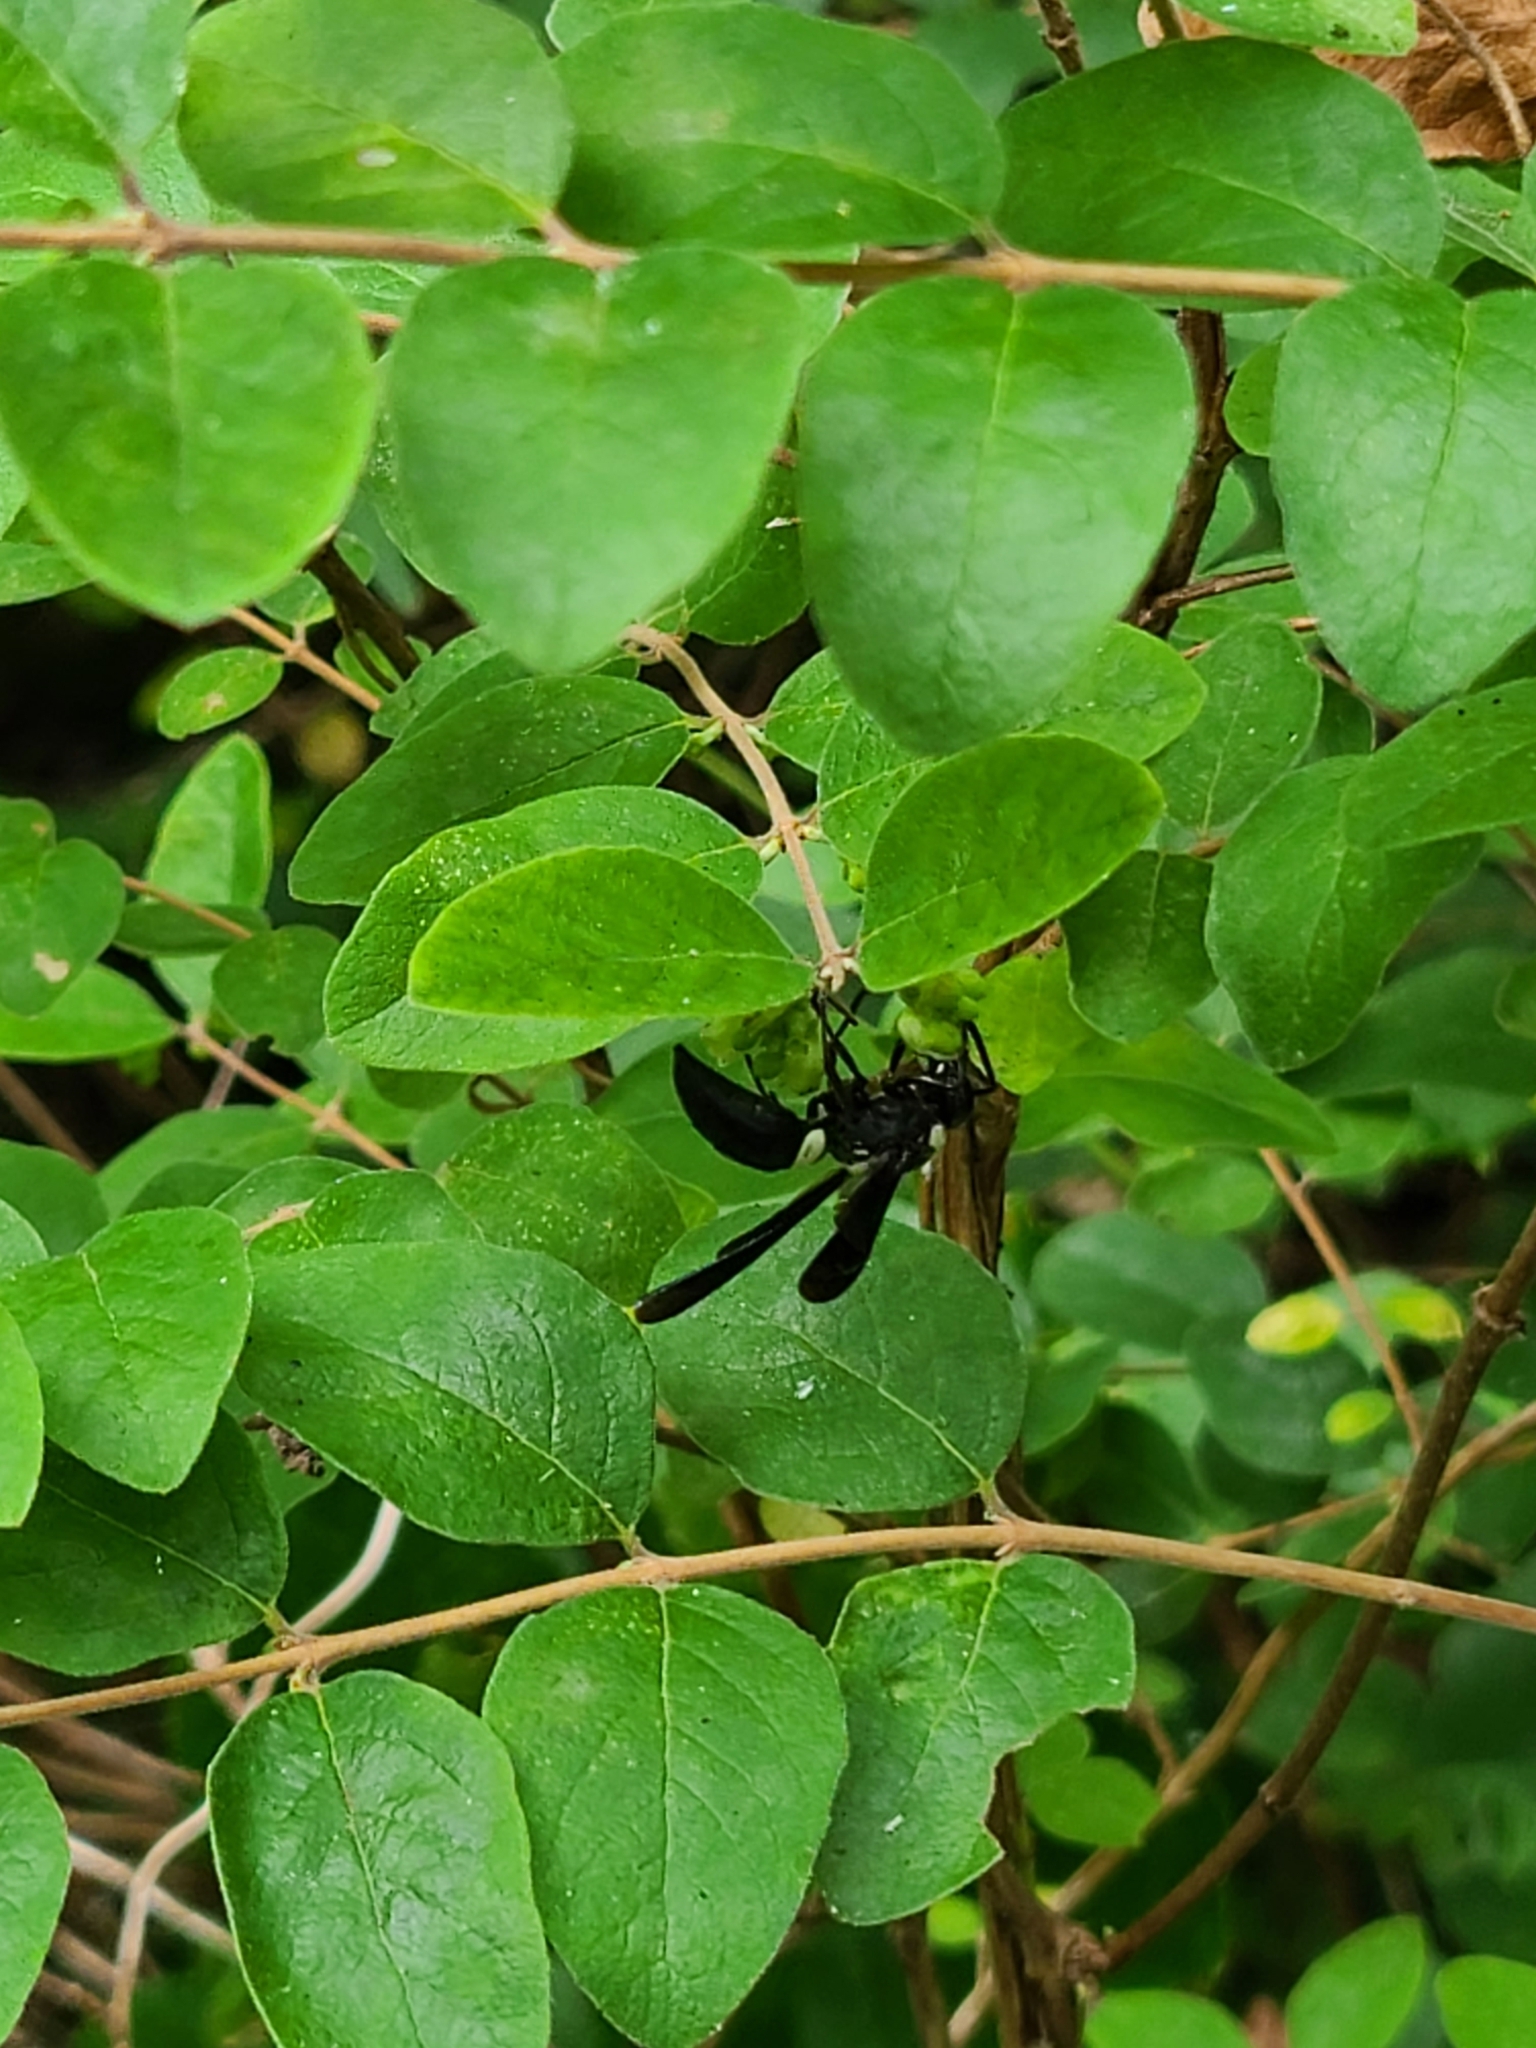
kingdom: Animalia
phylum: Arthropoda
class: Insecta
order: Hymenoptera
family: Eumenidae
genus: Monobia
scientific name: Monobia quadridens
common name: Four-toothed mason wasp
